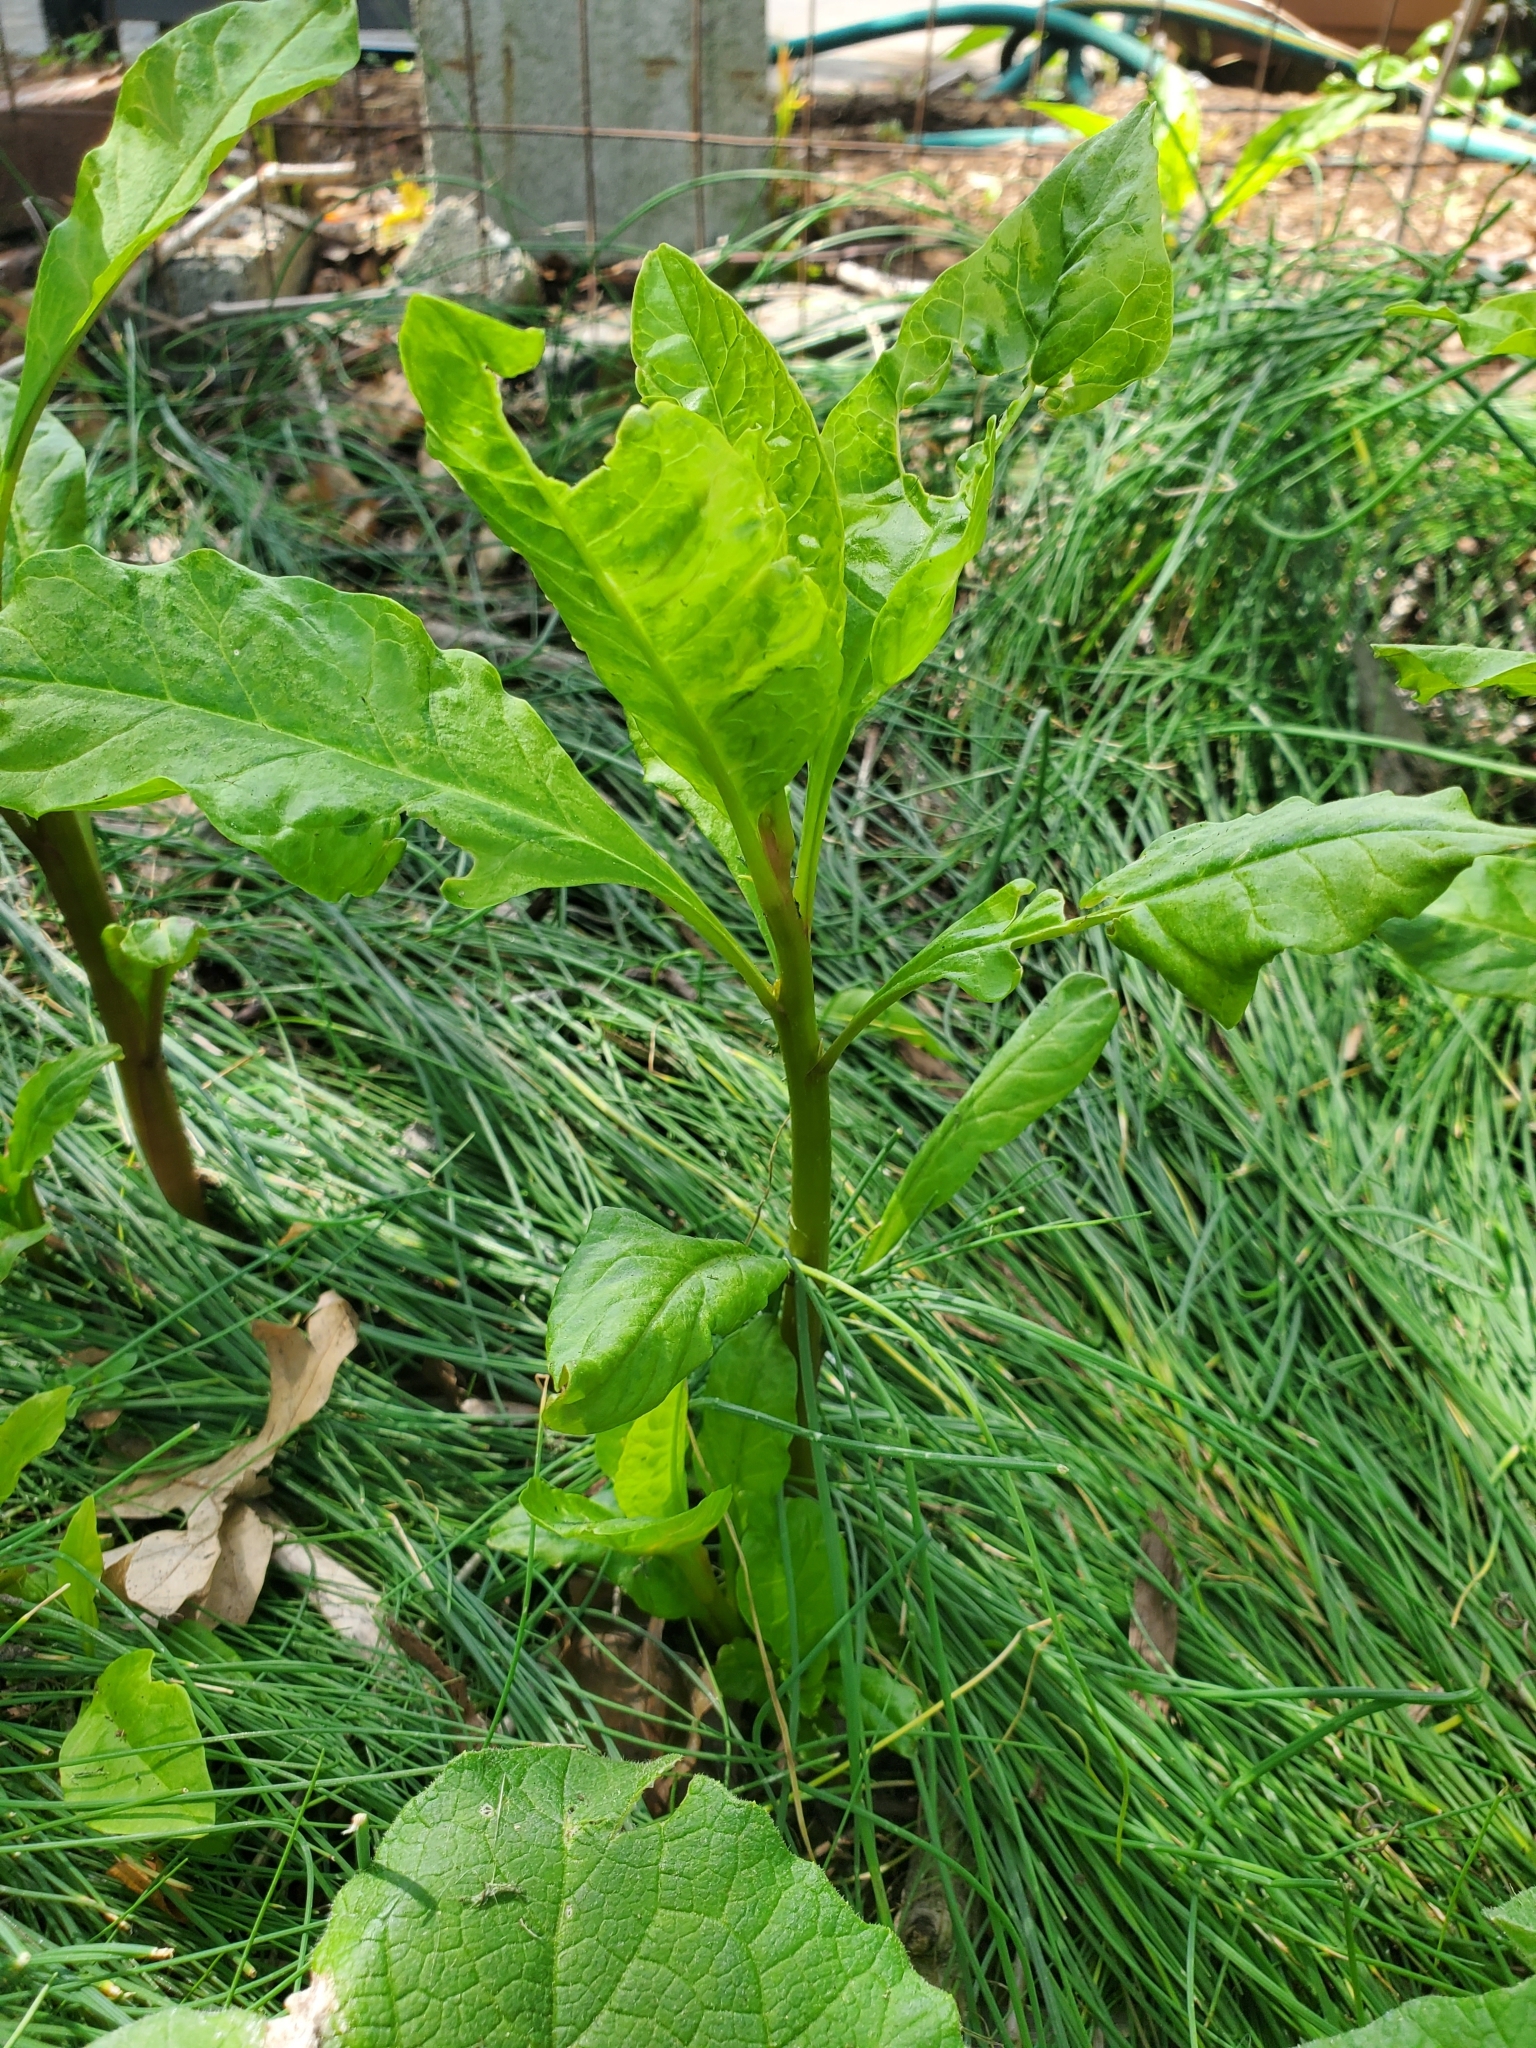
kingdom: Plantae
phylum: Tracheophyta
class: Magnoliopsida
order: Caryophyllales
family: Phytolaccaceae
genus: Phytolacca
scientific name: Phytolacca americana
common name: American pokeweed
